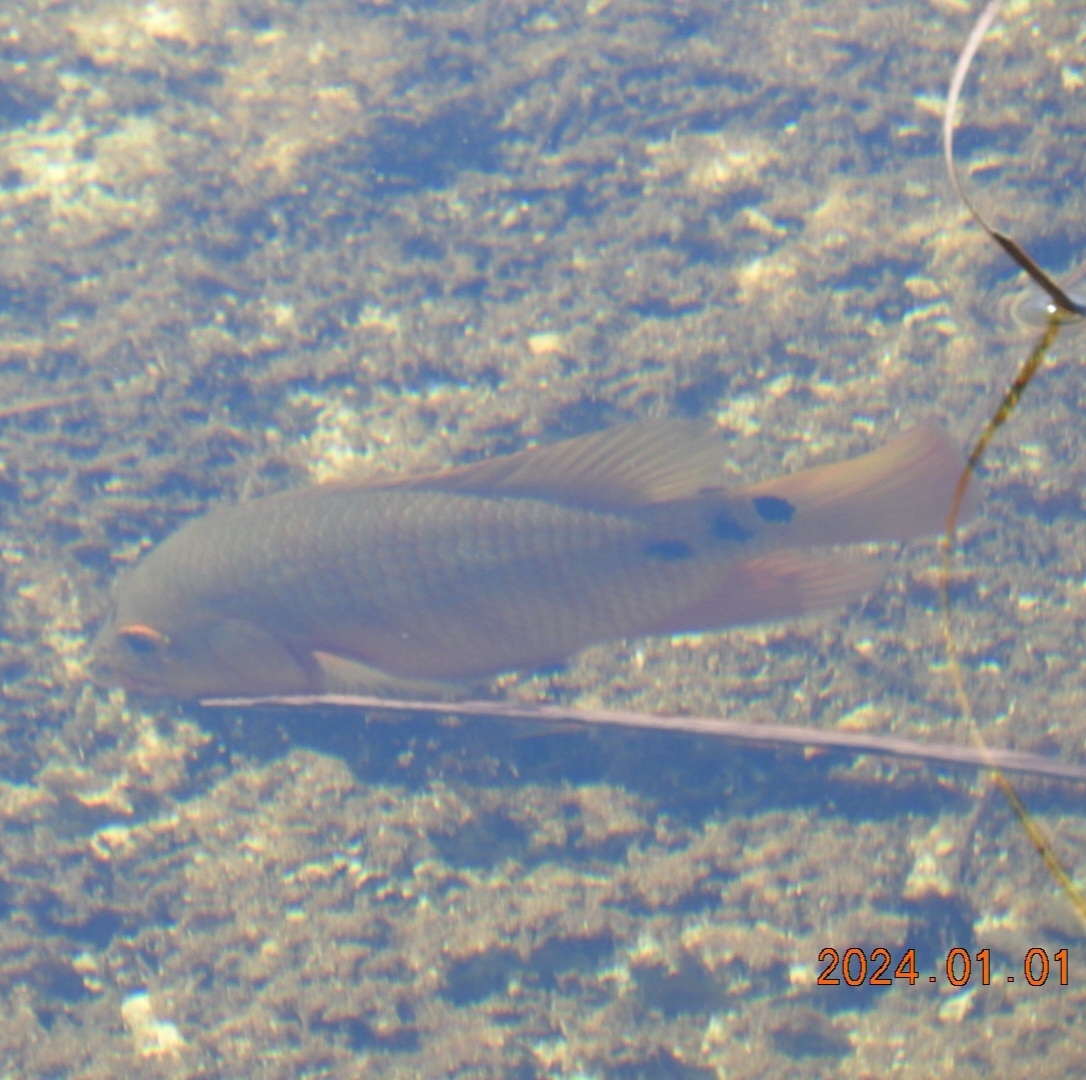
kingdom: Animalia
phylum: Chordata
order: Perciformes
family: Cichlidae
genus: Mayaheros
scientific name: Mayaheros urophthalmus
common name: Mayan cichlid
